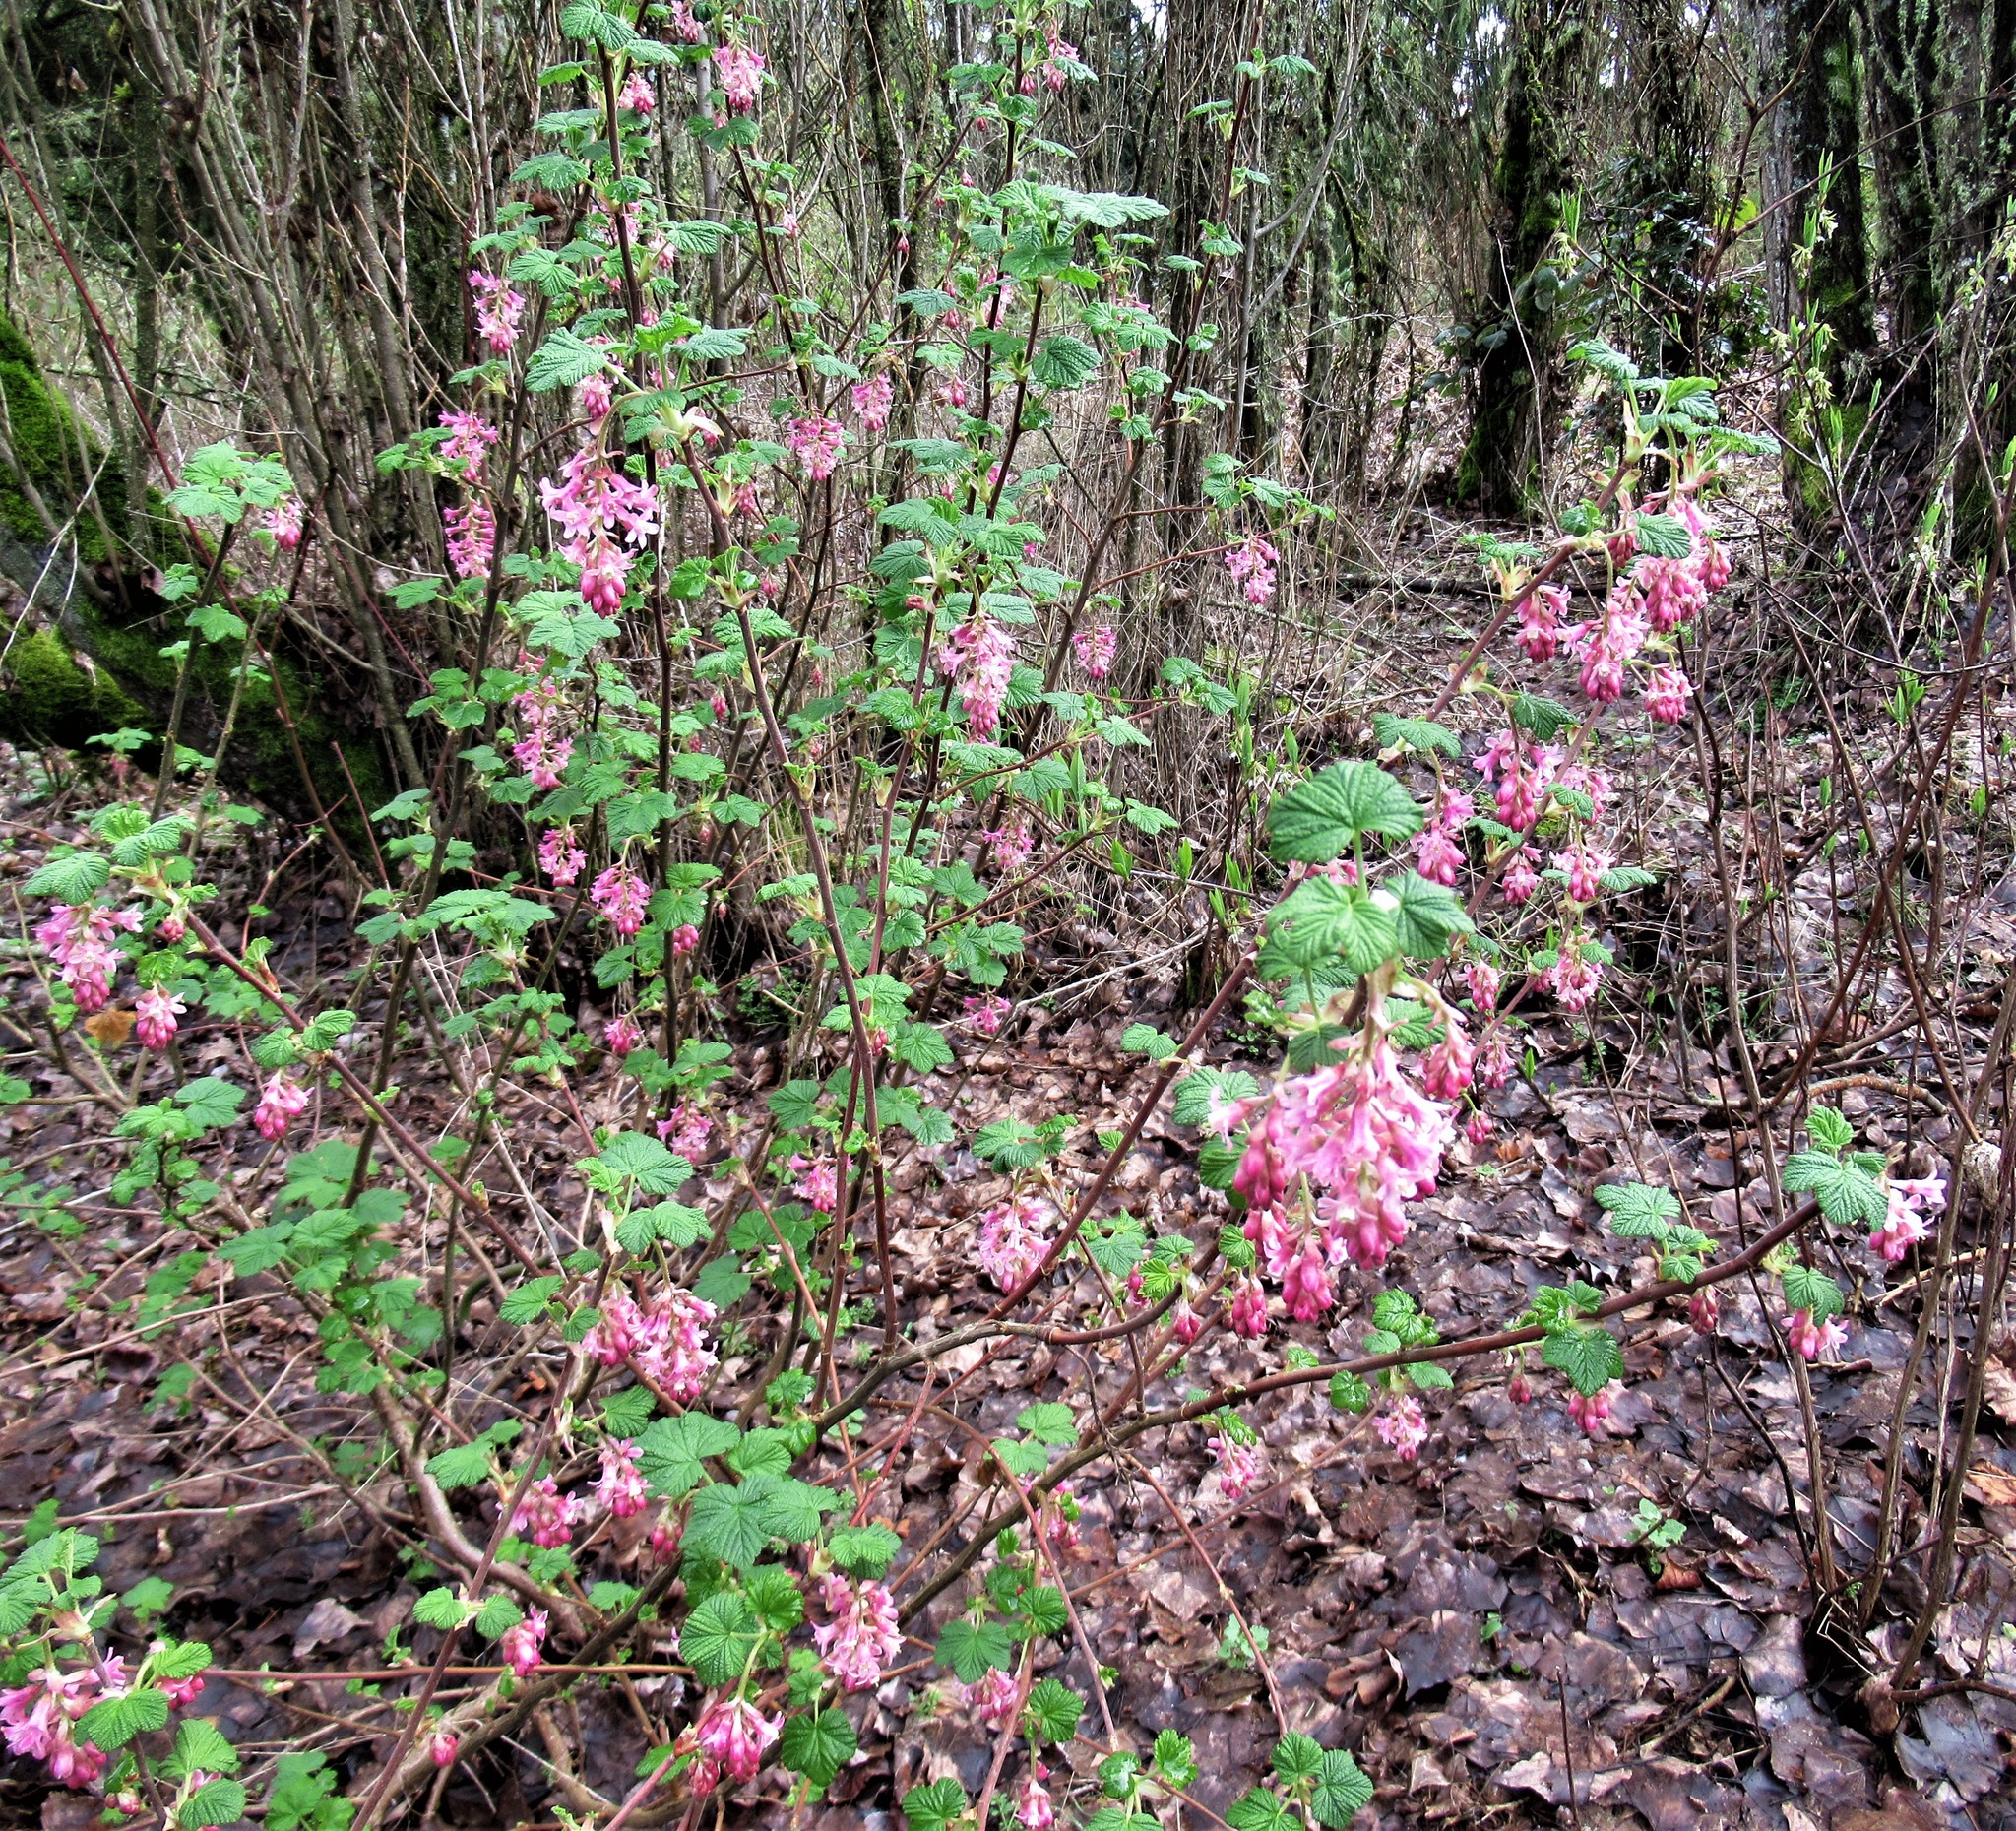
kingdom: Plantae
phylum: Tracheophyta
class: Magnoliopsida
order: Saxifragales
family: Grossulariaceae
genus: Ribes
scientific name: Ribes sanguineum
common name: Flowering currant
